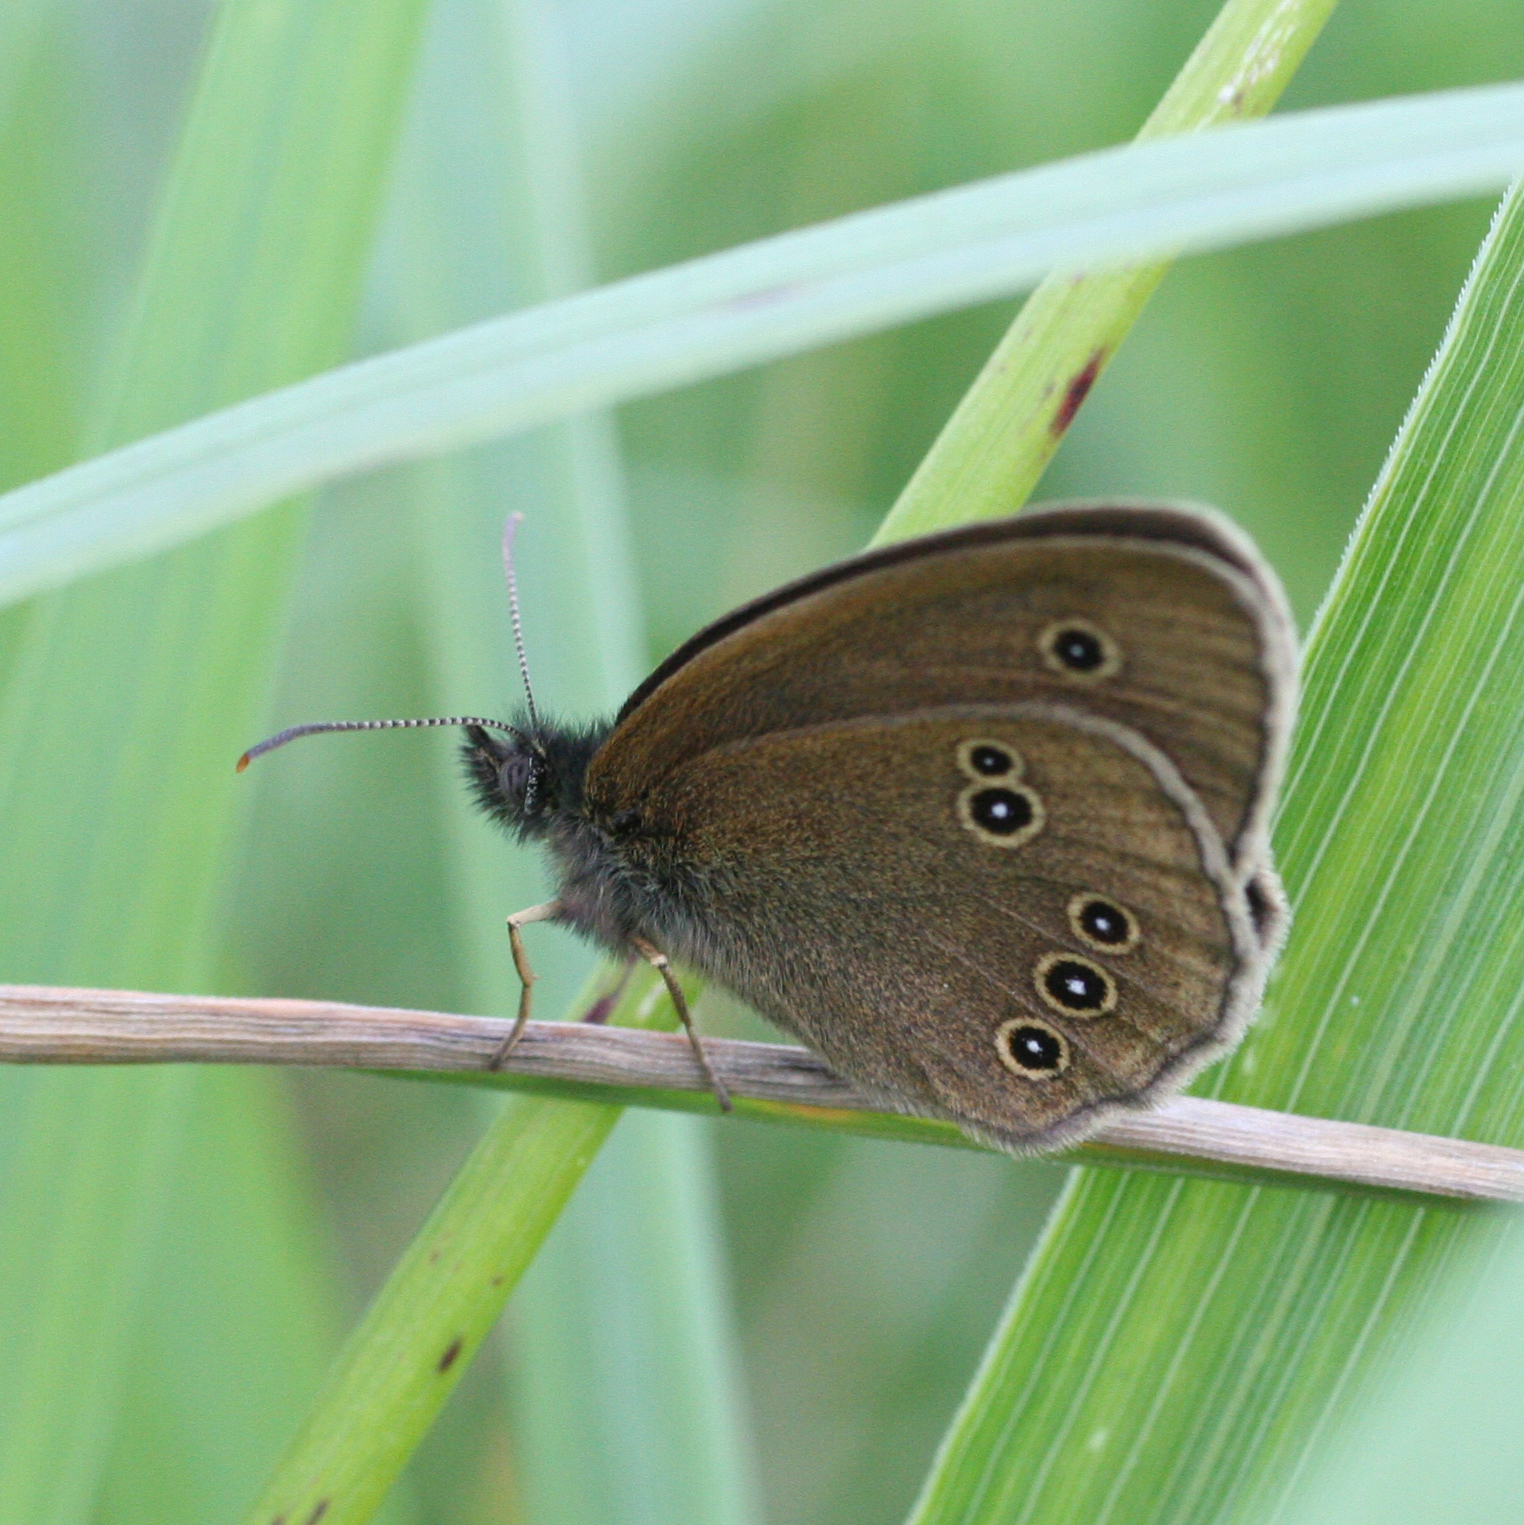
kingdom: Animalia
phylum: Arthropoda
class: Insecta
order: Lepidoptera
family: Nymphalidae
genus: Aphantopus
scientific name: Aphantopus hyperantus
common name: Ringlet
